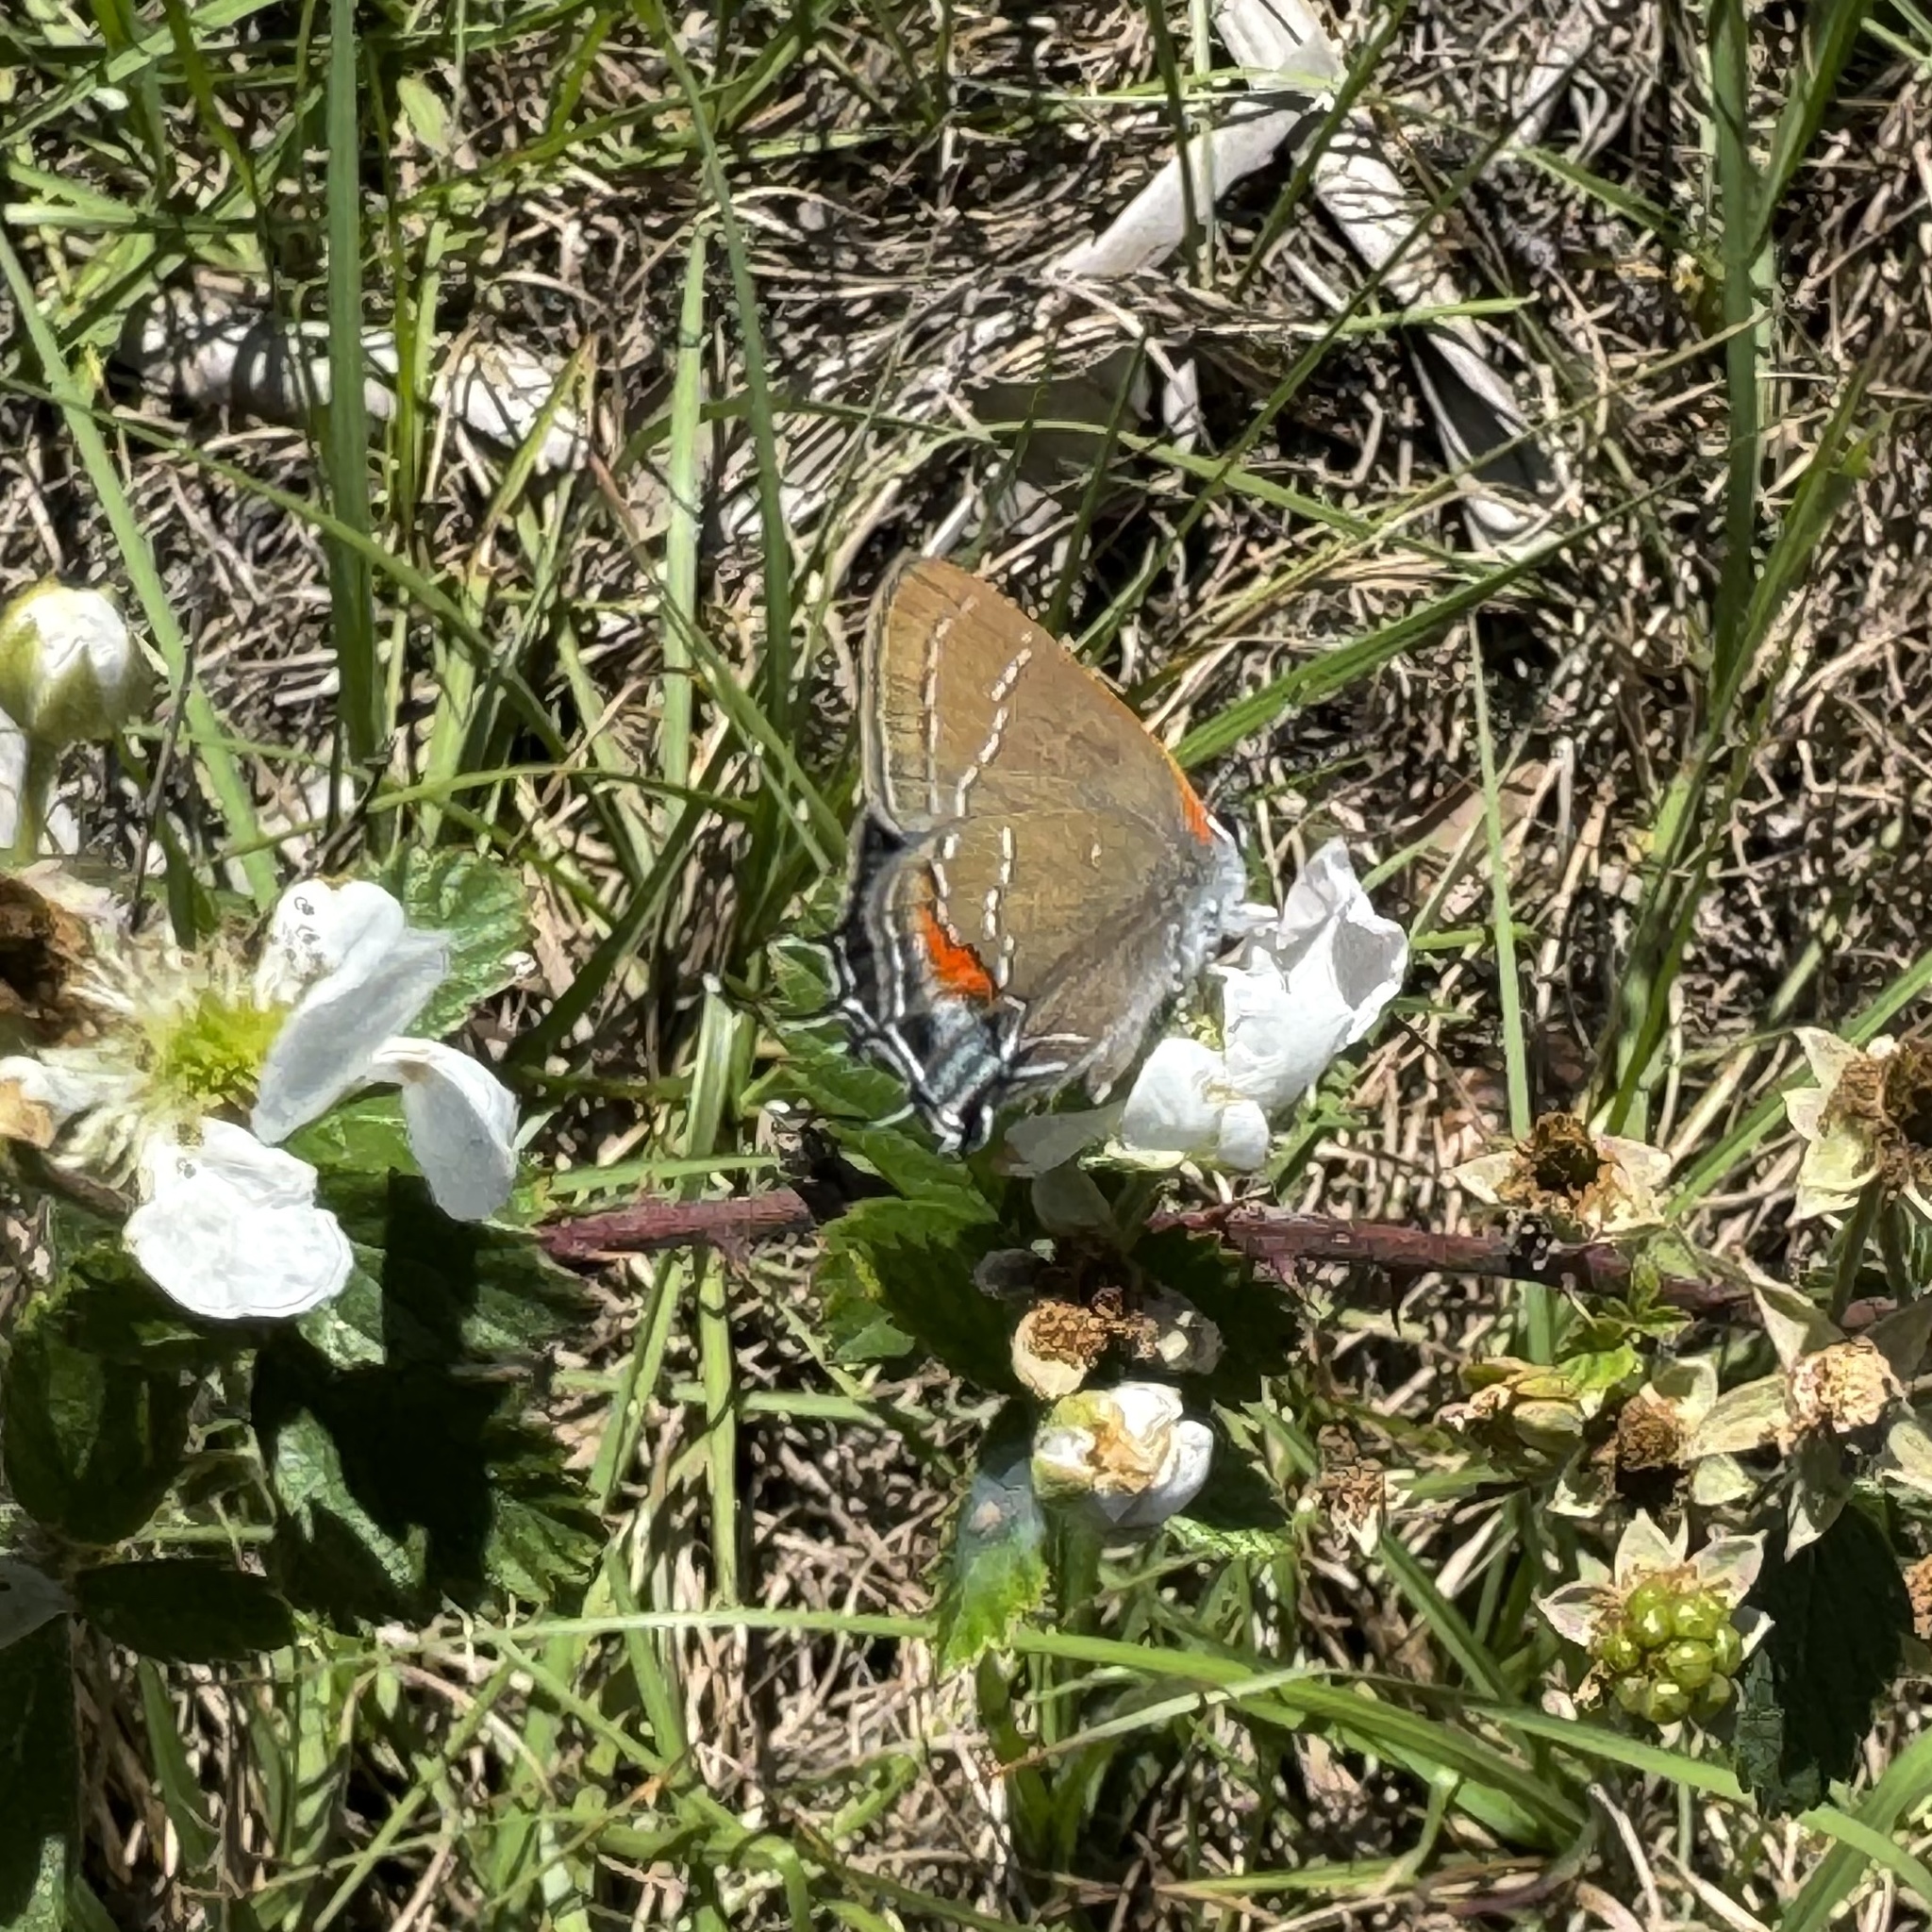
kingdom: Animalia
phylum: Arthropoda
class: Insecta
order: Lepidoptera
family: Lycaenidae
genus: Fixsenia
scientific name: Fixsenia favonius
